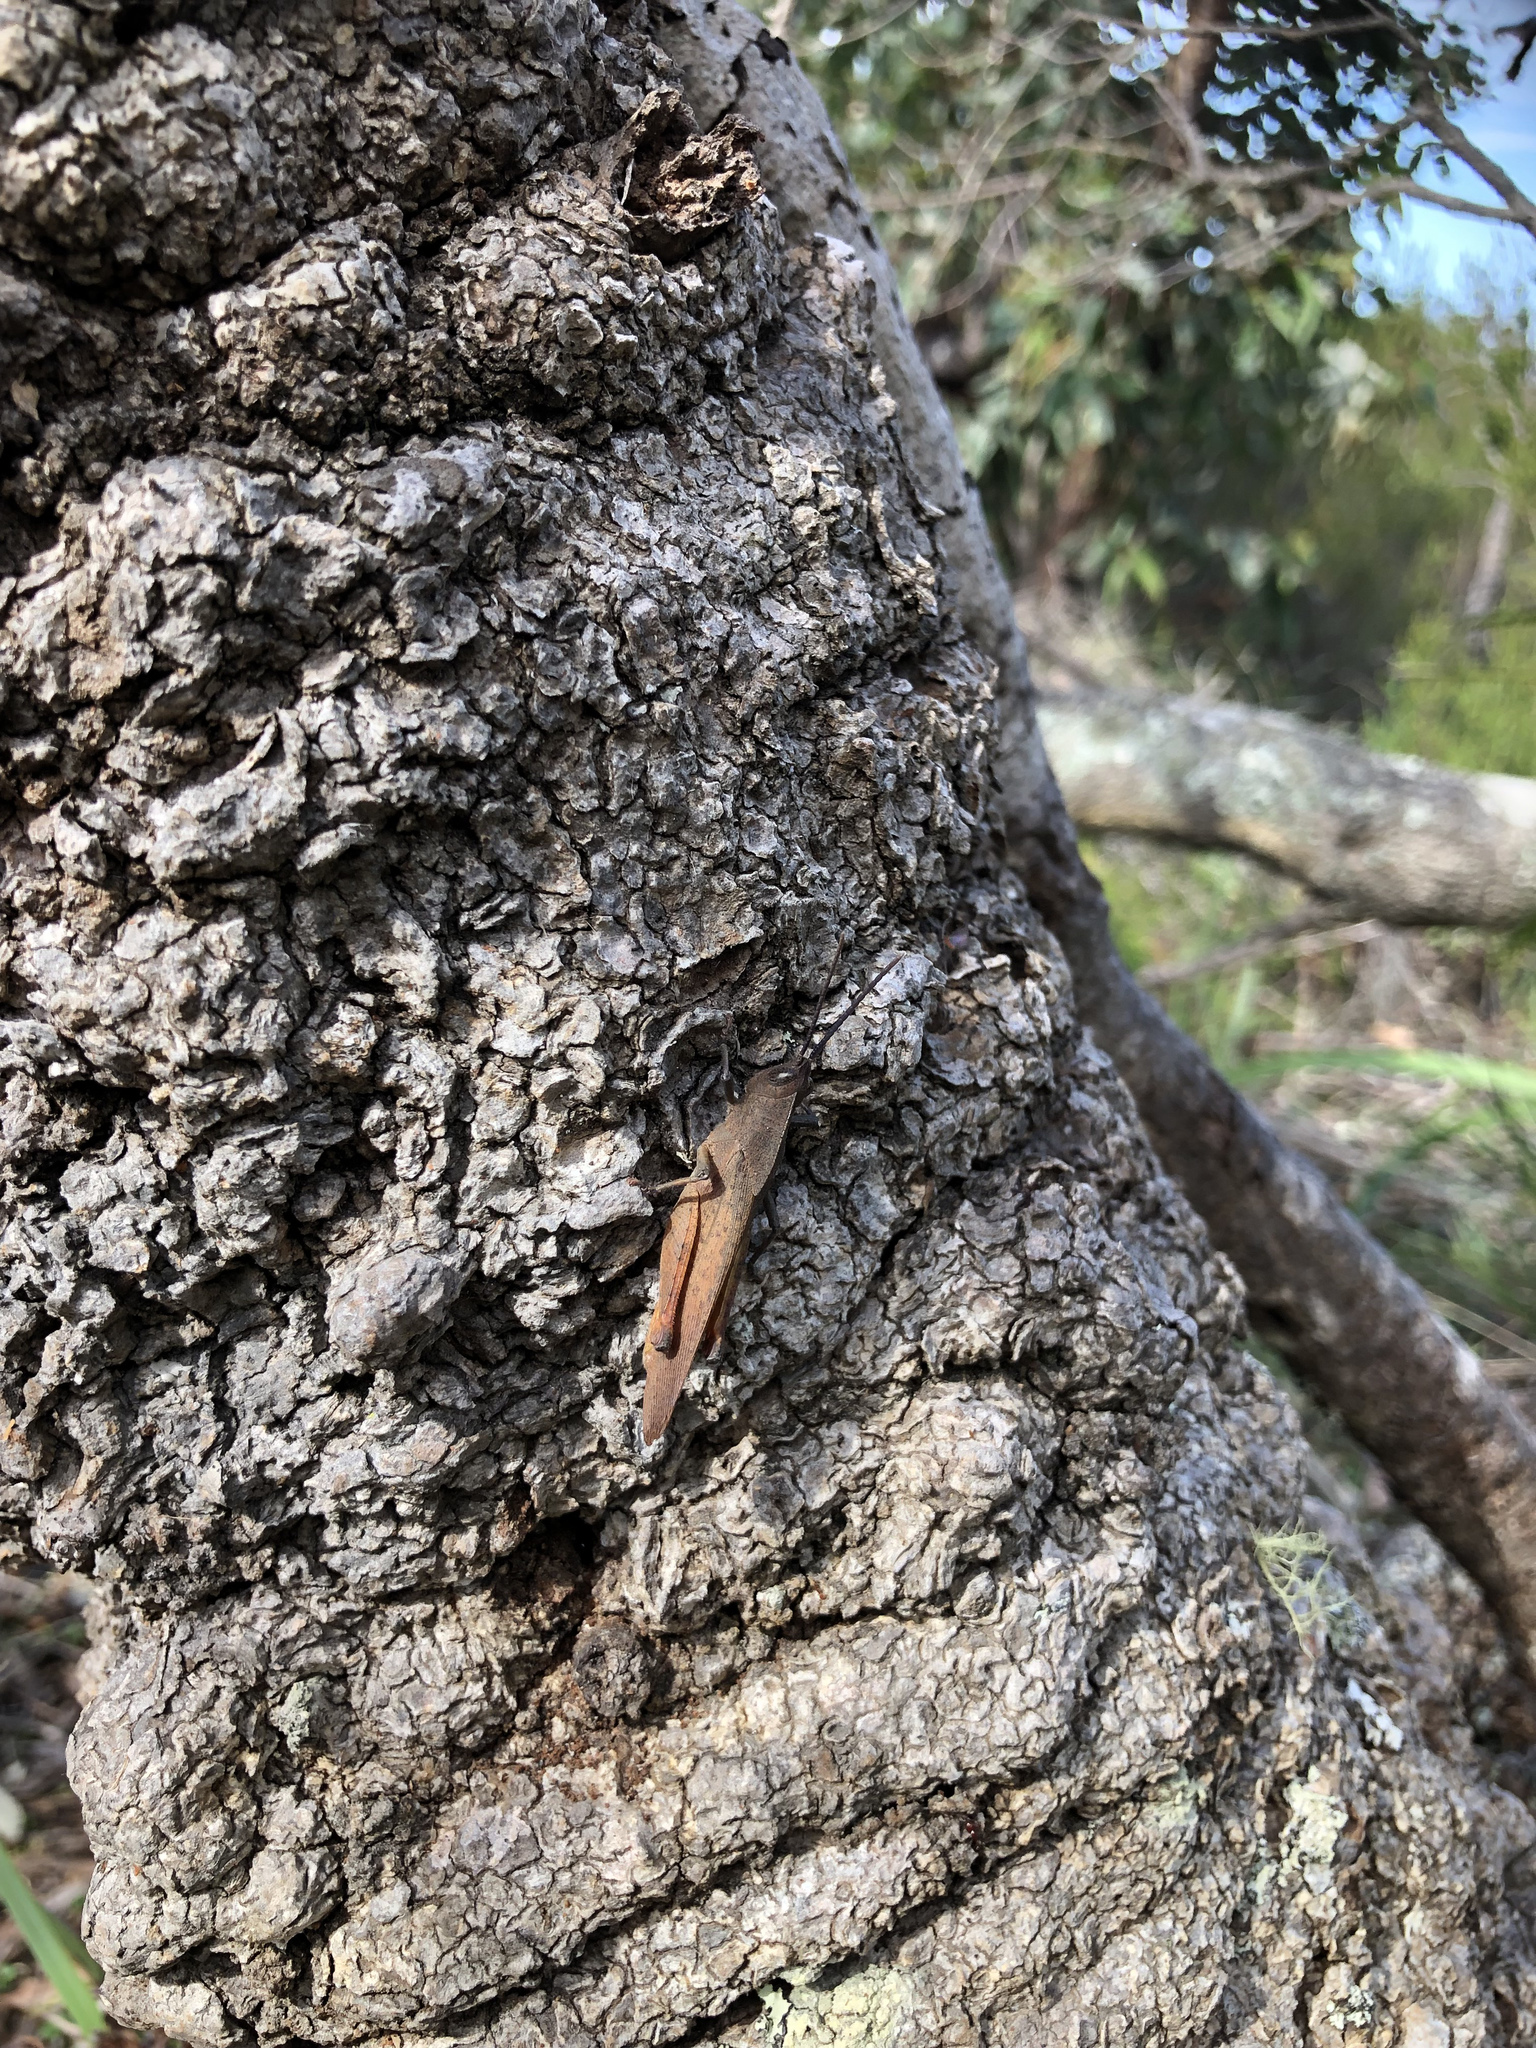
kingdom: Animalia
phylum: Arthropoda
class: Insecta
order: Orthoptera
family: Acrididae
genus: Goniaea
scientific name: Goniaea australasiae
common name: Gumleaf grasshopper
